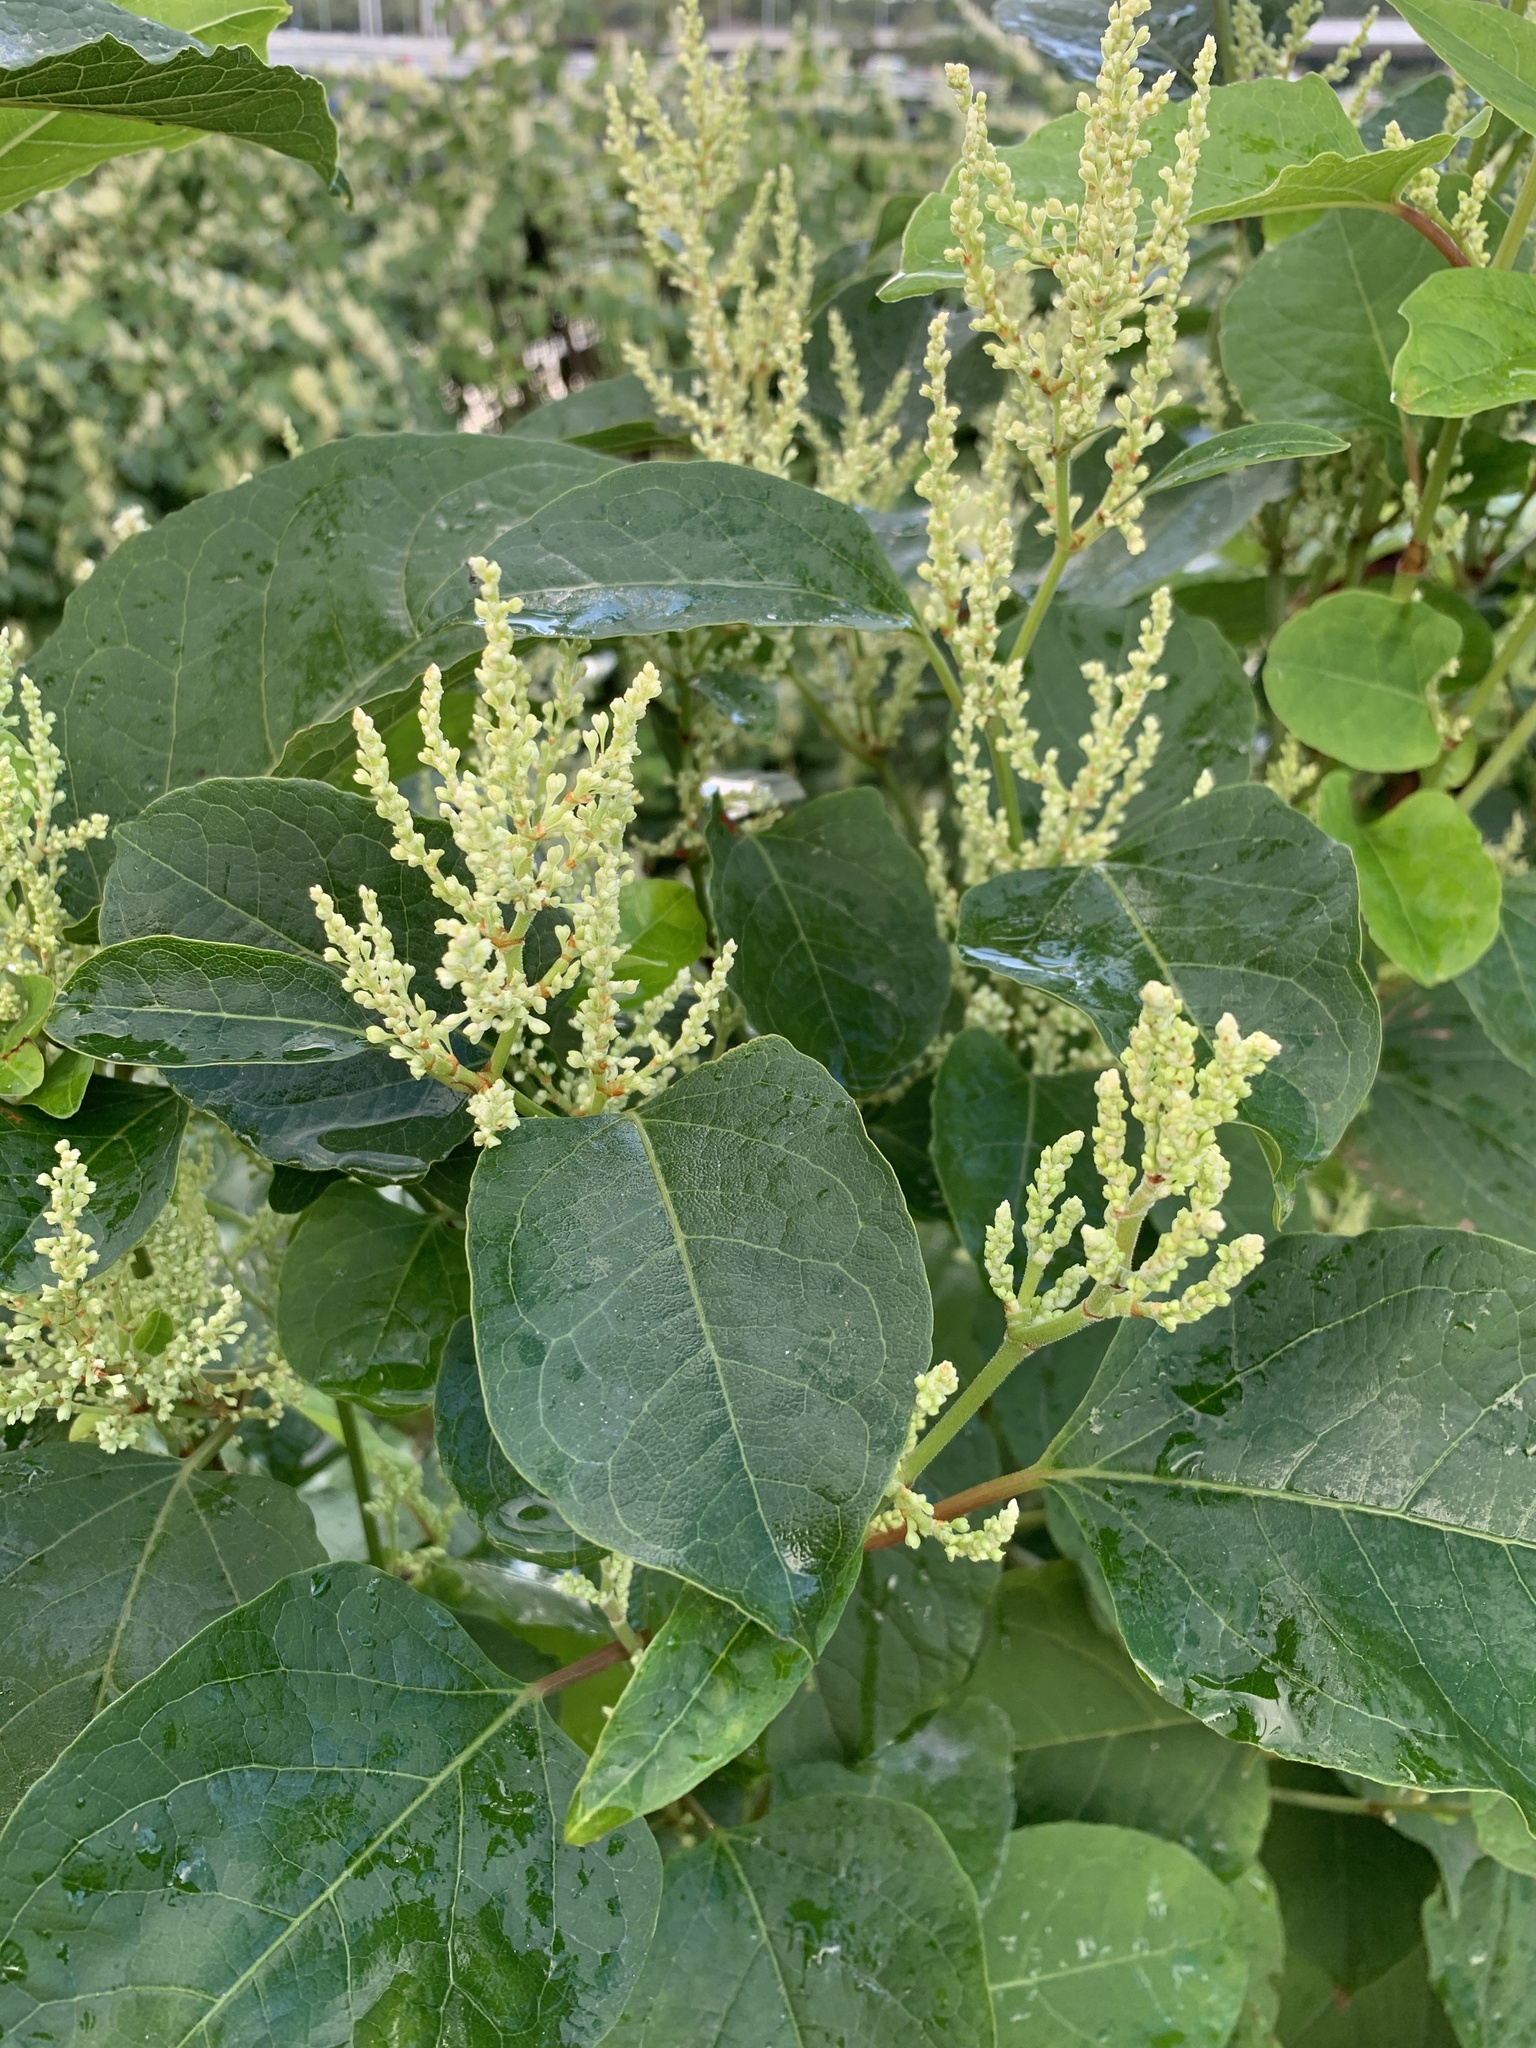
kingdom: Plantae
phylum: Tracheophyta
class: Magnoliopsida
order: Caryophyllales
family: Polygonaceae
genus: Reynoutria
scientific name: Reynoutria japonica
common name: Japanese knotweed
